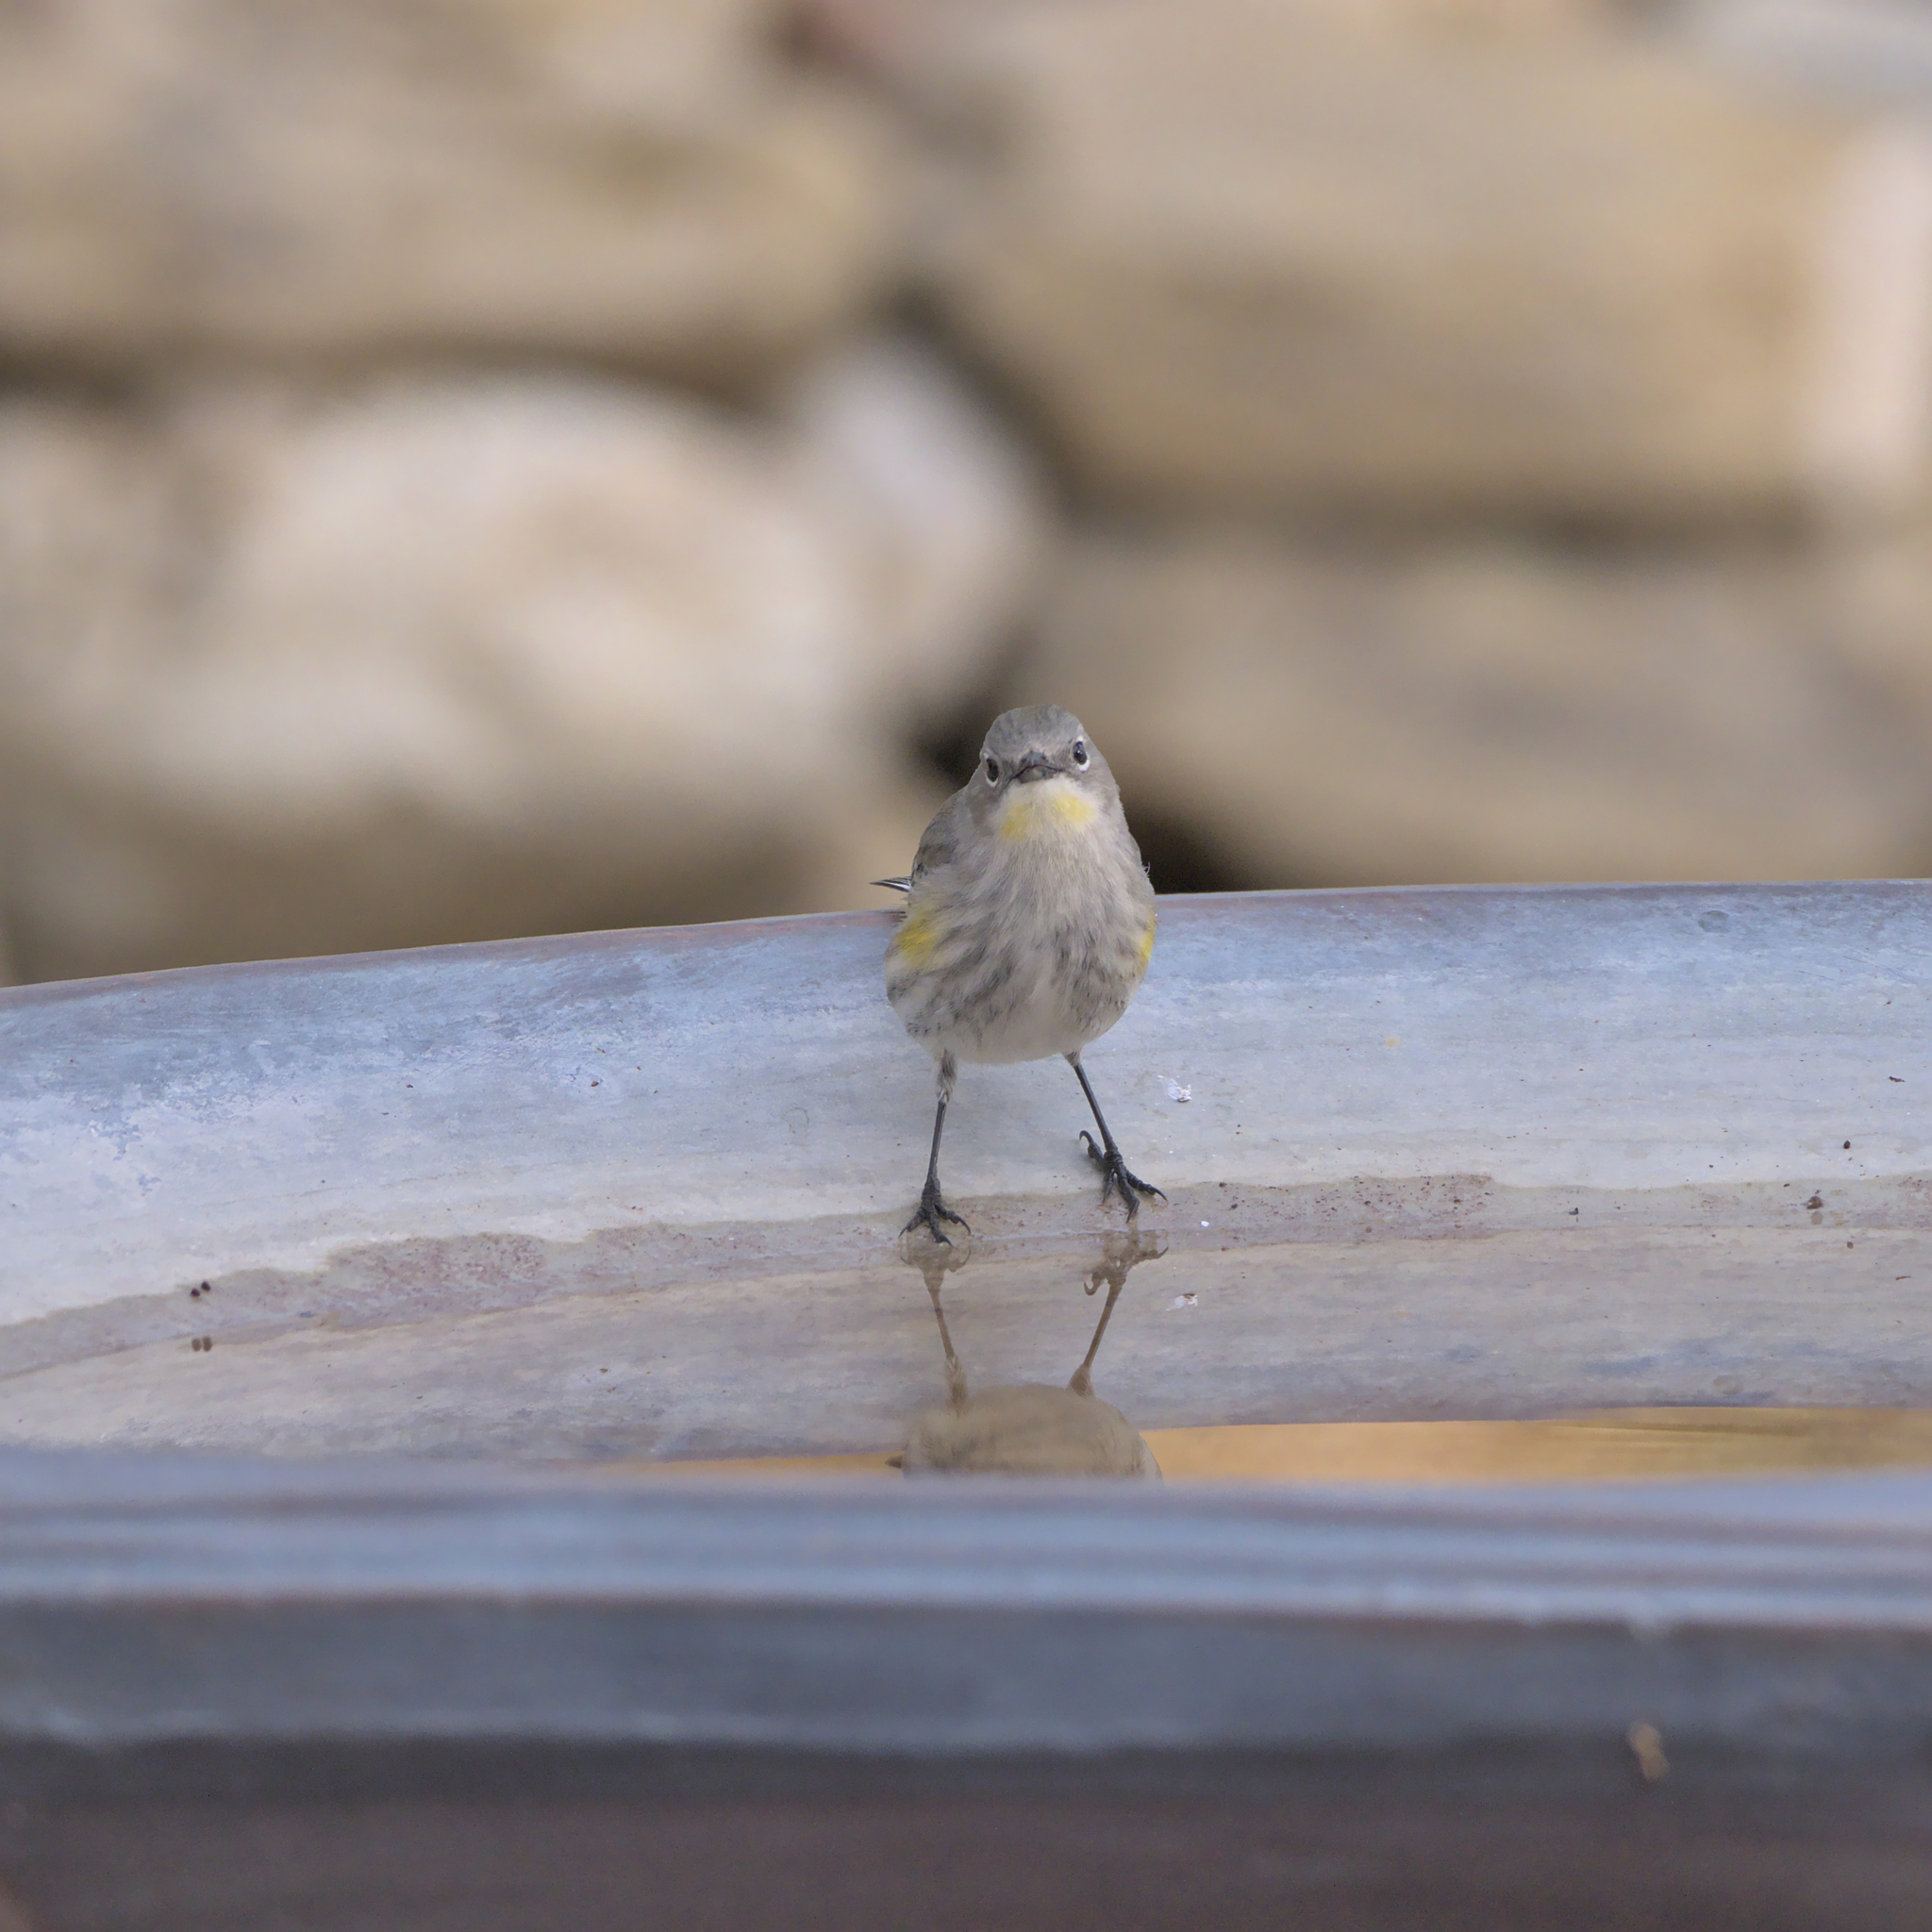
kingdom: Animalia
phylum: Chordata
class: Aves
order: Passeriformes
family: Parulidae
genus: Setophaga
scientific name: Setophaga coronata
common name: Myrtle warbler
